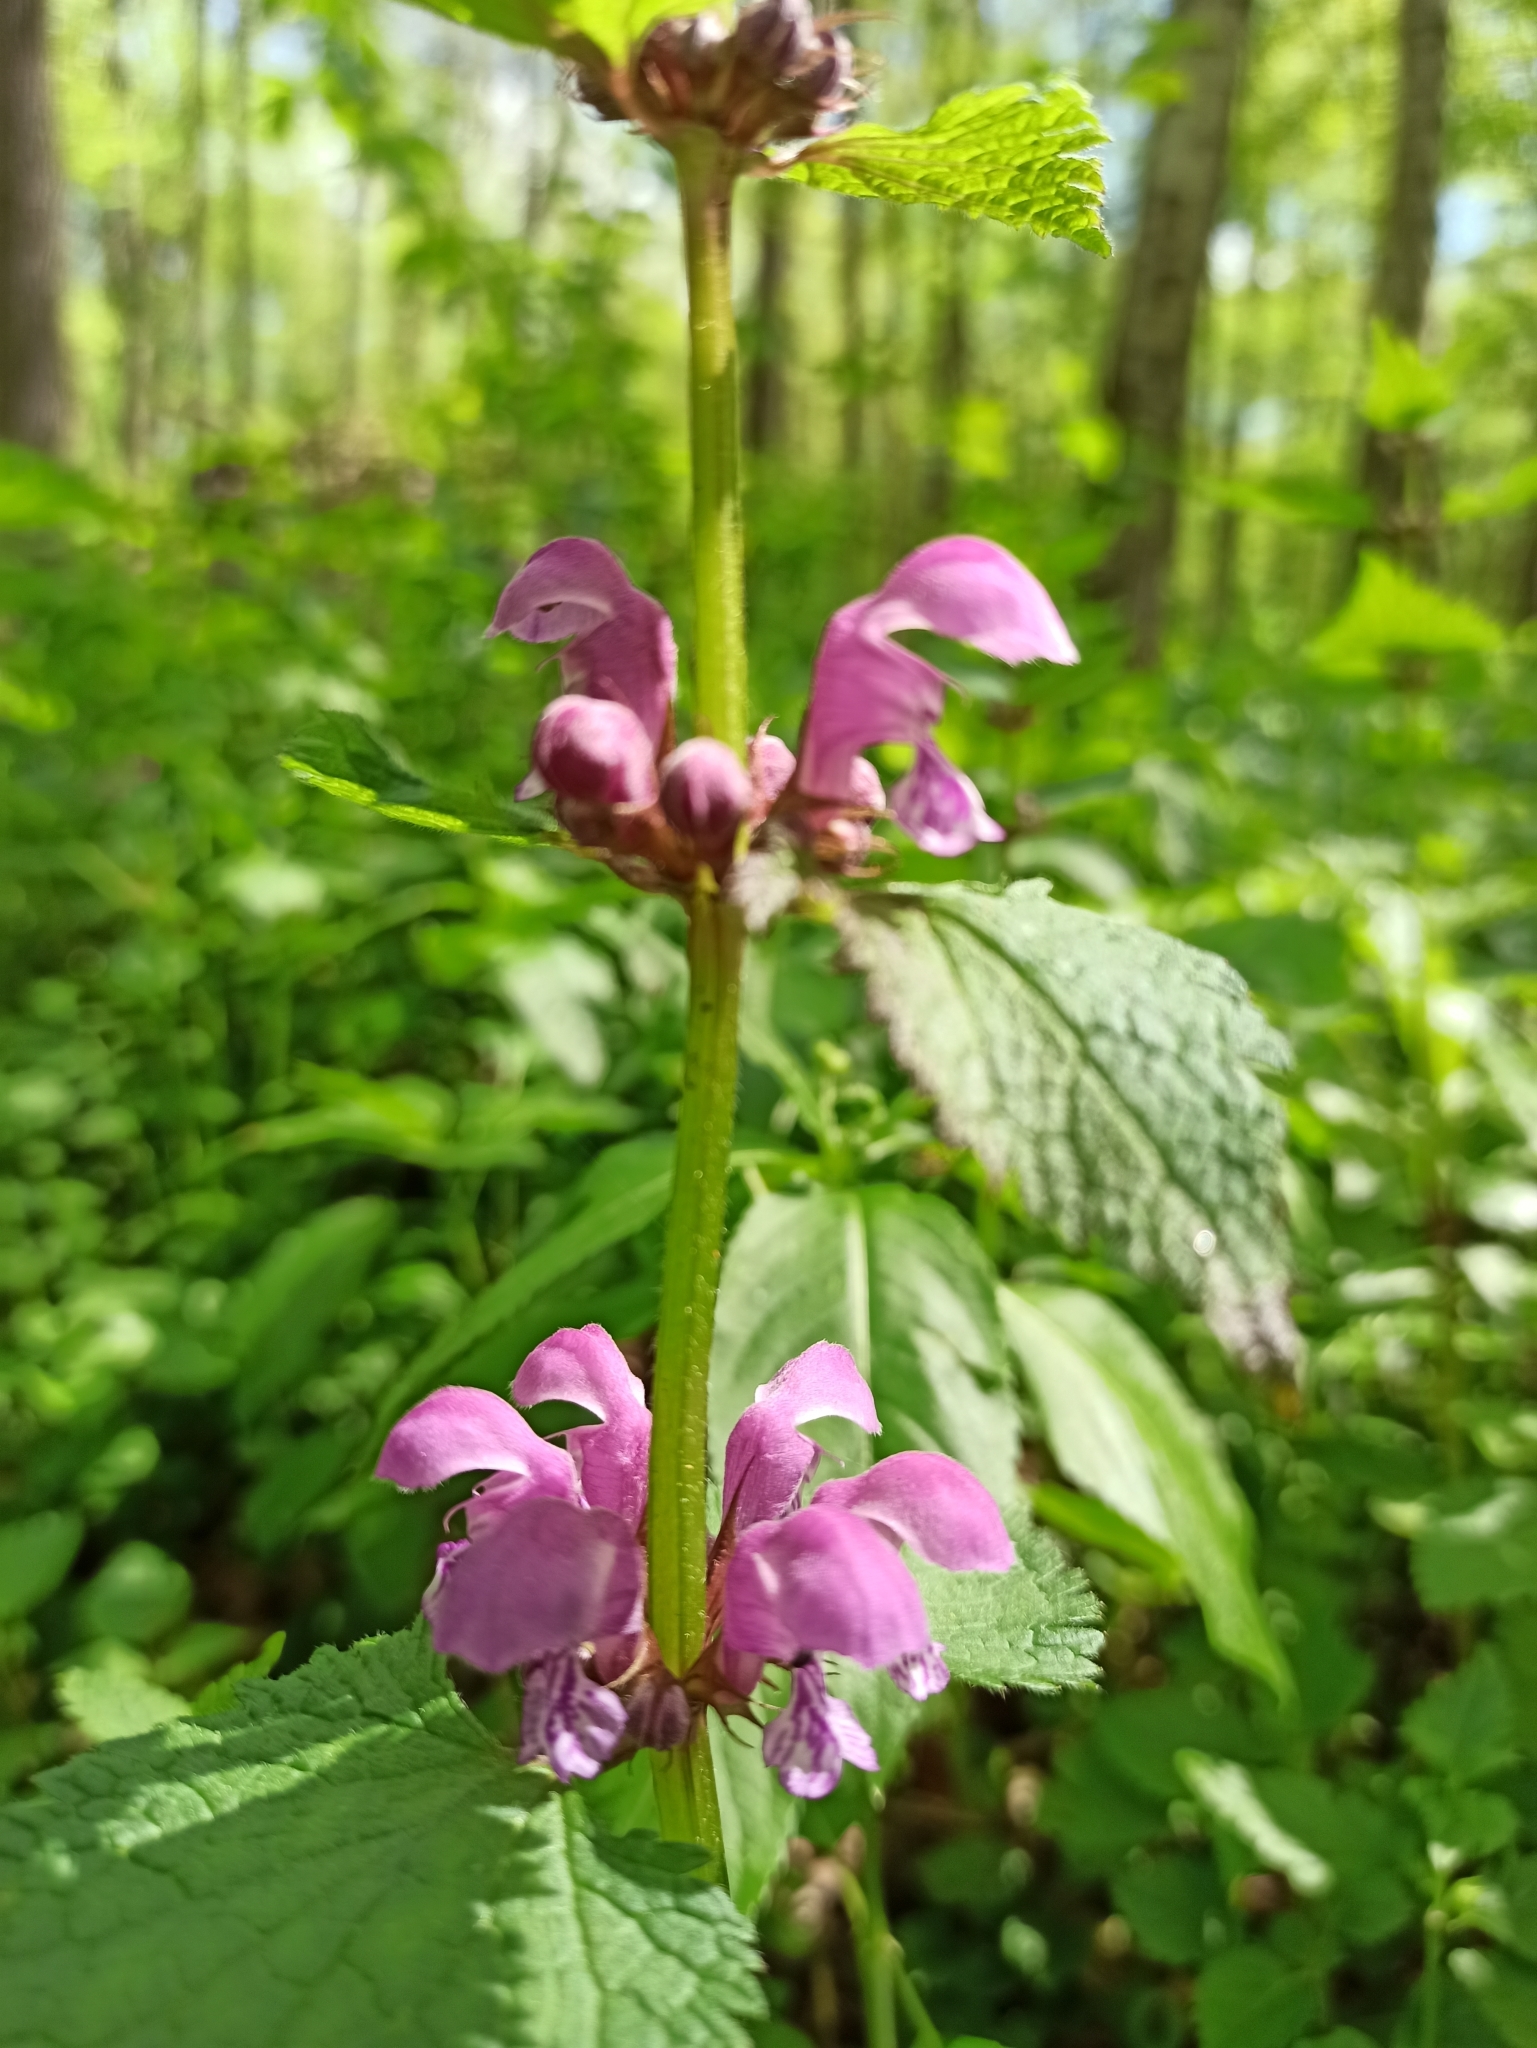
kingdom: Plantae
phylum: Tracheophyta
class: Magnoliopsida
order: Lamiales
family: Lamiaceae
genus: Lamium
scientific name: Lamium maculatum
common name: Spotted dead-nettle
